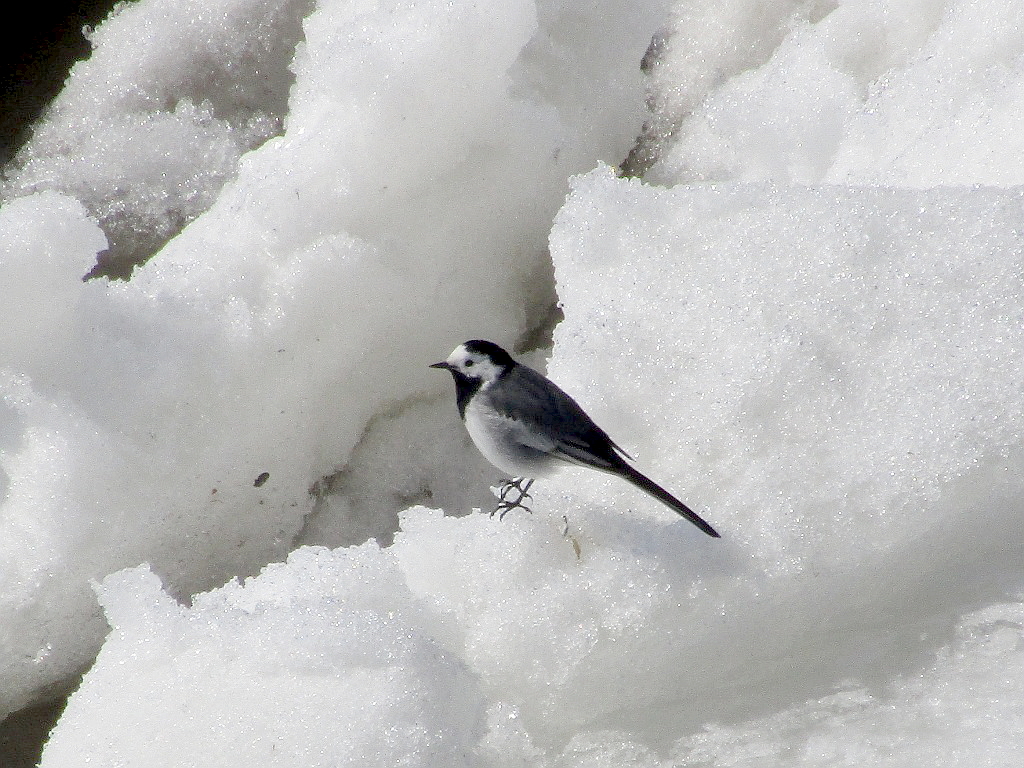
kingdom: Animalia
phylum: Chordata
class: Aves
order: Passeriformes
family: Motacillidae
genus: Motacilla
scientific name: Motacilla alba
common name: White wagtail
